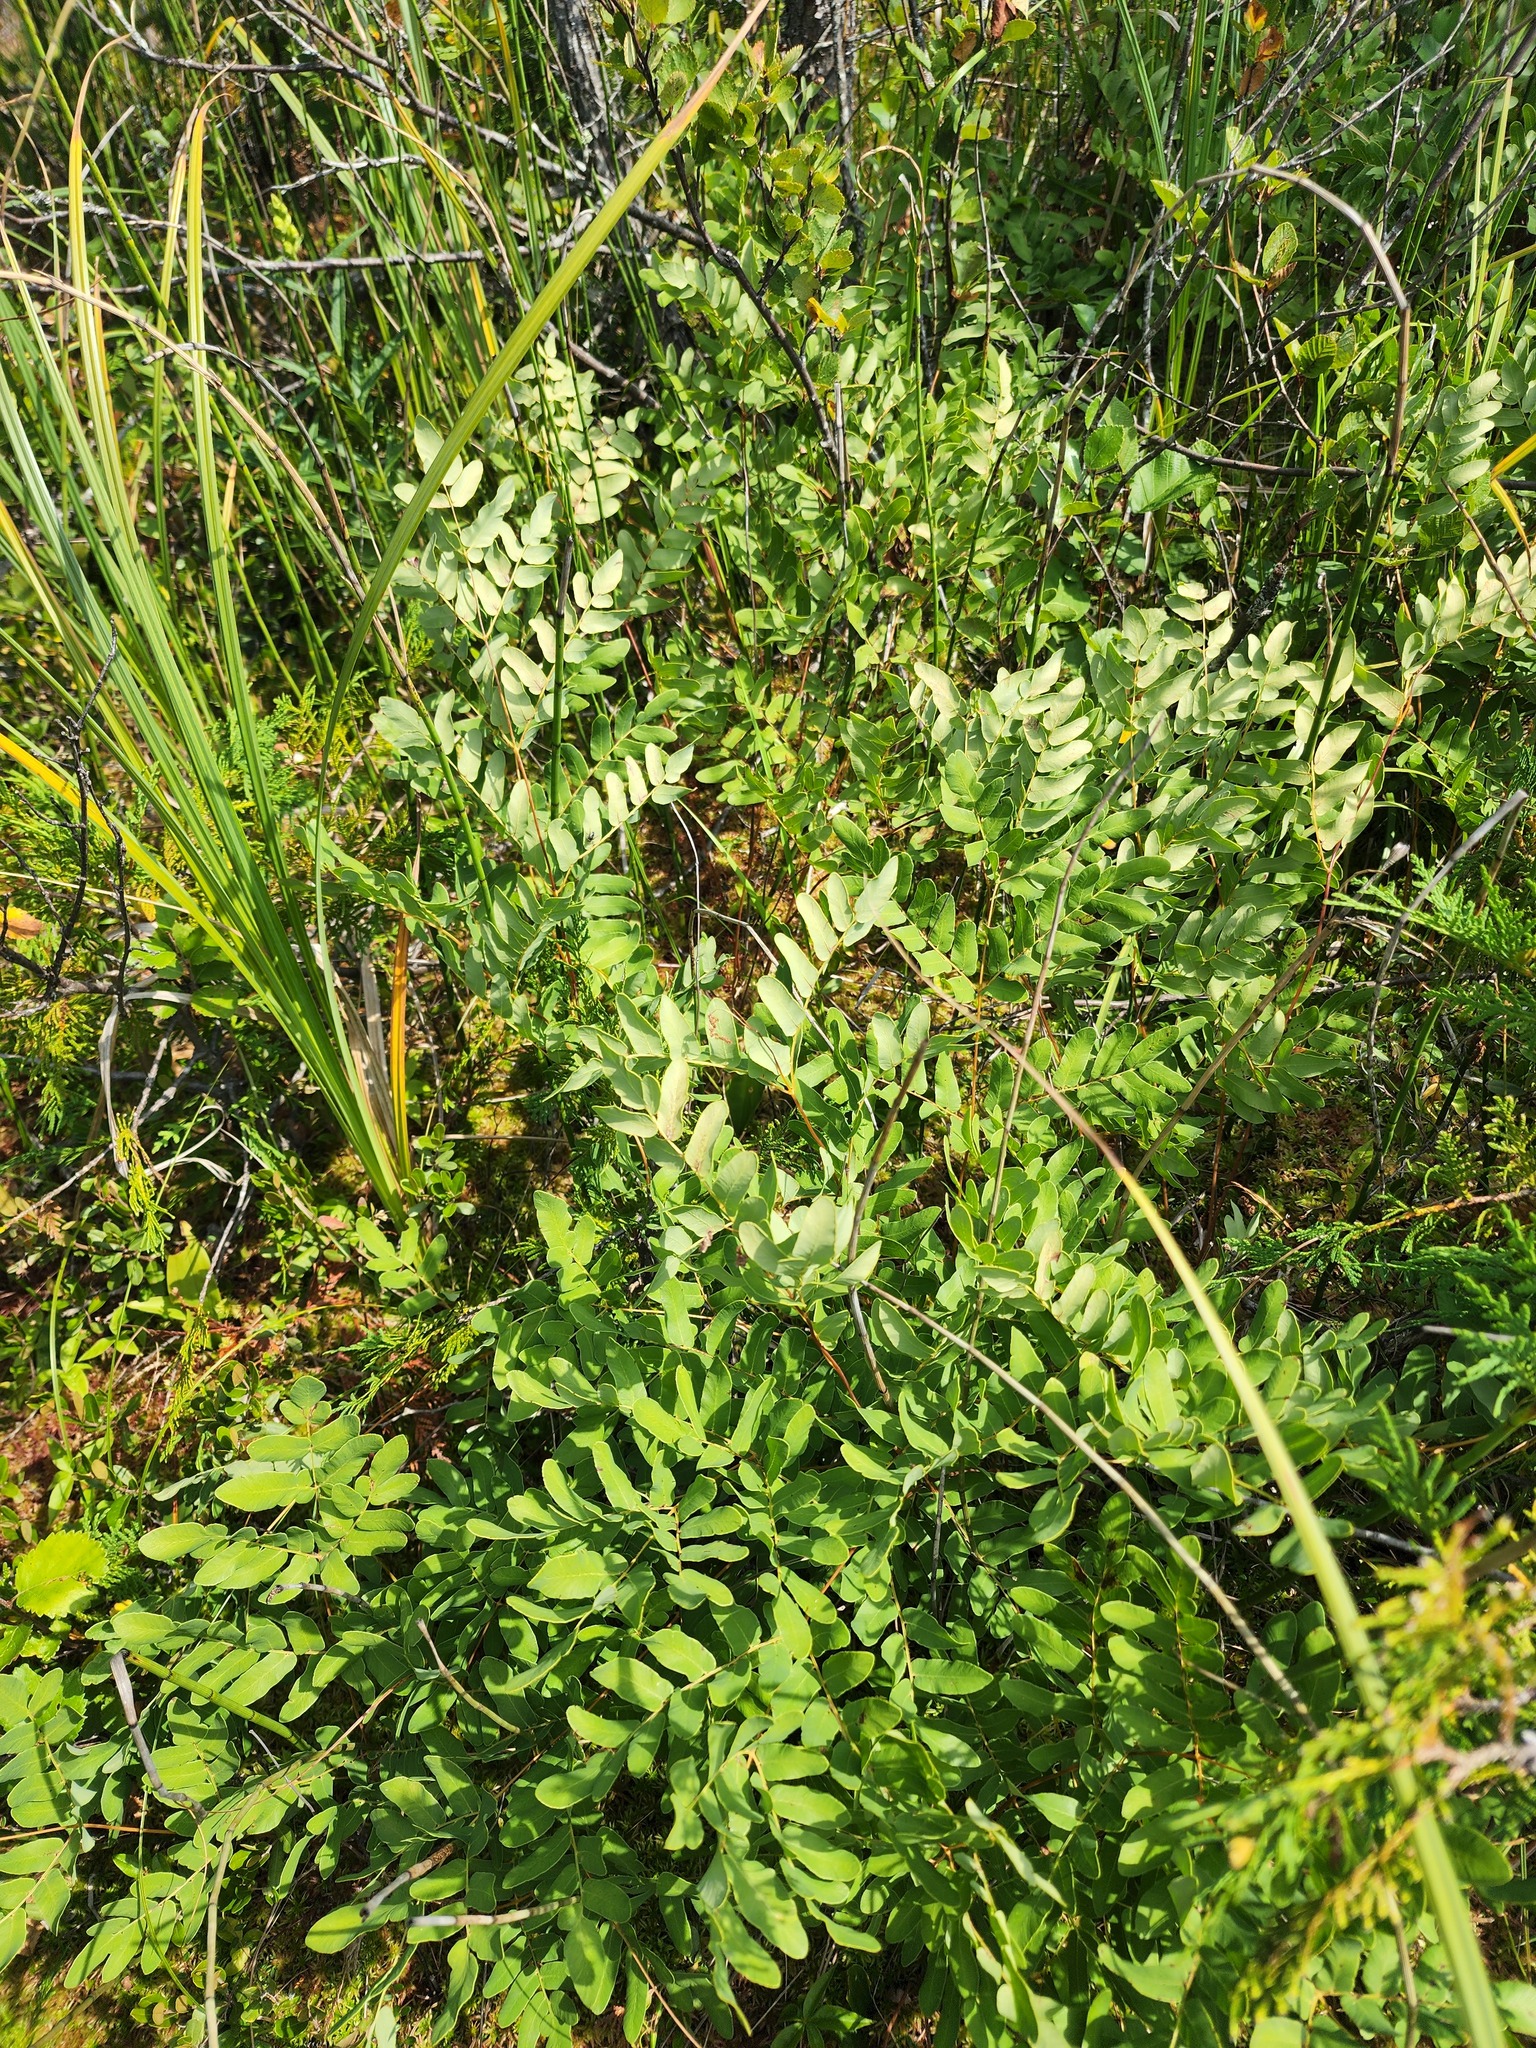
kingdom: Plantae
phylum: Tracheophyta
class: Polypodiopsida
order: Osmundales
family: Osmundaceae
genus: Osmunda
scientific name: Osmunda spectabilis
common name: American royal fern
